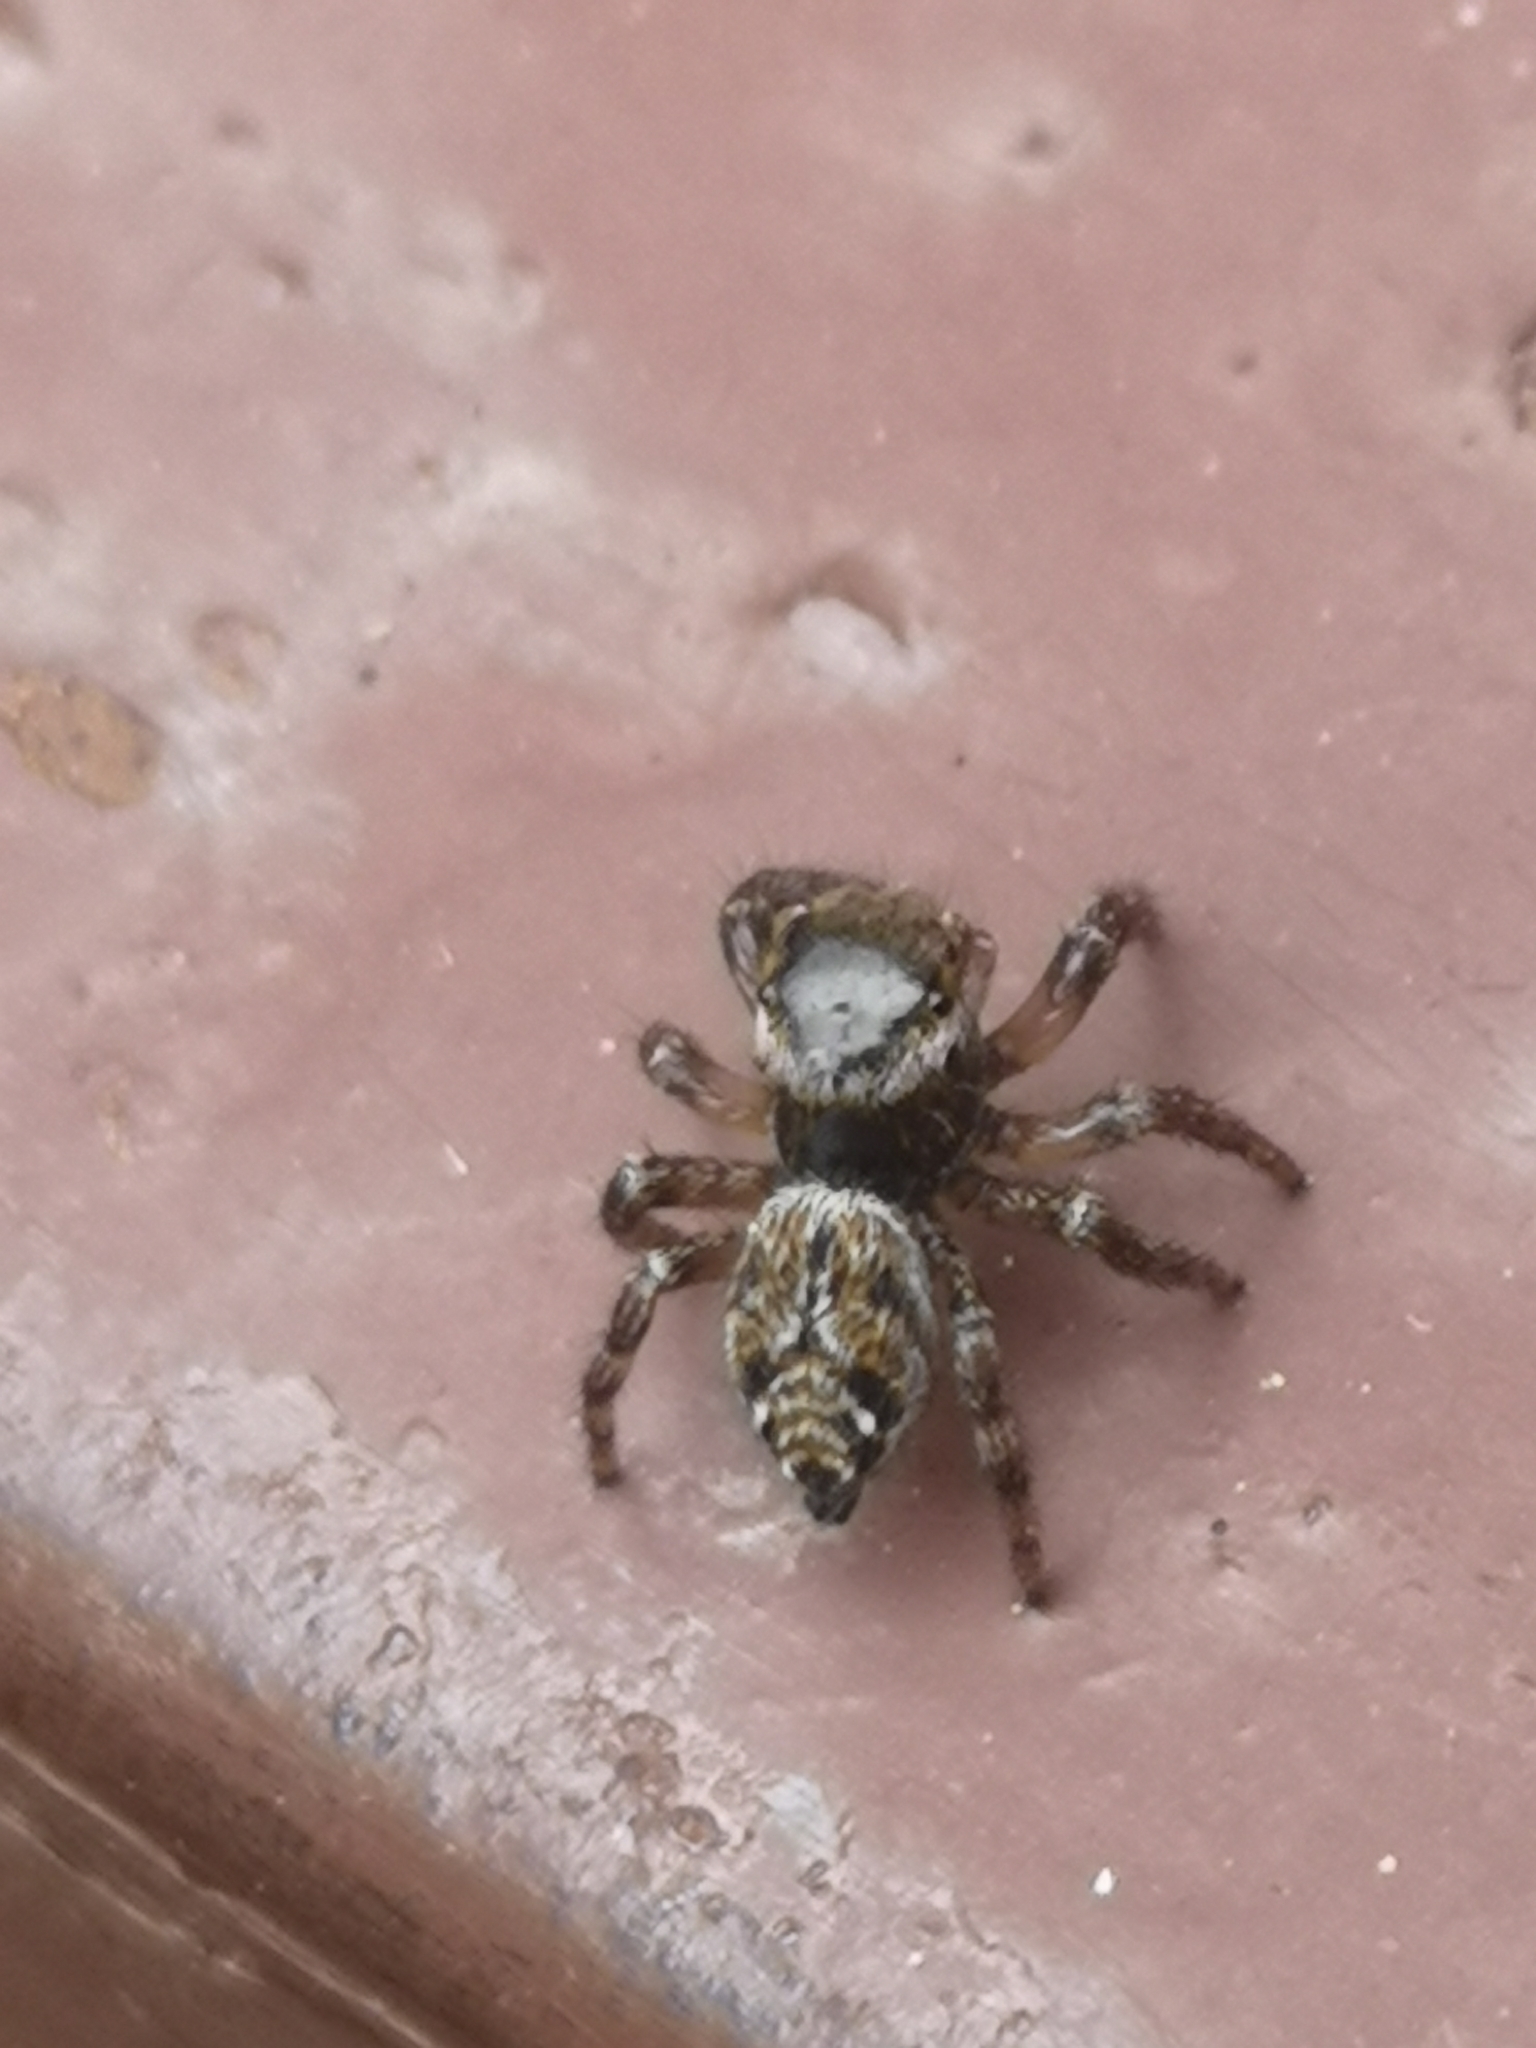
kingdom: Animalia
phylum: Arthropoda
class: Arachnida
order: Araneae
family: Salticidae
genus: Evarcha
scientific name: Evarcha jucunda
